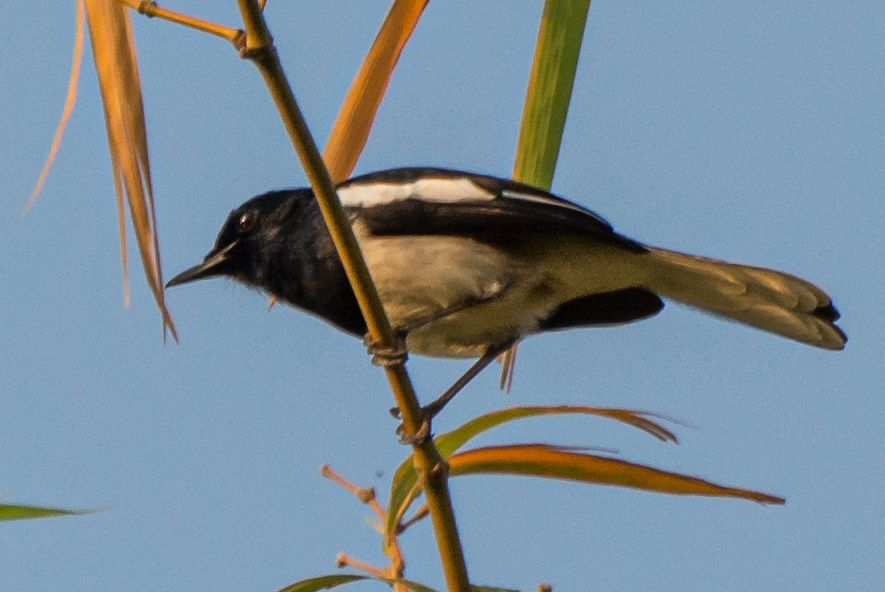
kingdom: Animalia
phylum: Chordata
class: Aves
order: Passeriformes
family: Muscicapidae
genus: Copsychus
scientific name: Copsychus saularis
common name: Oriental magpie-robin
